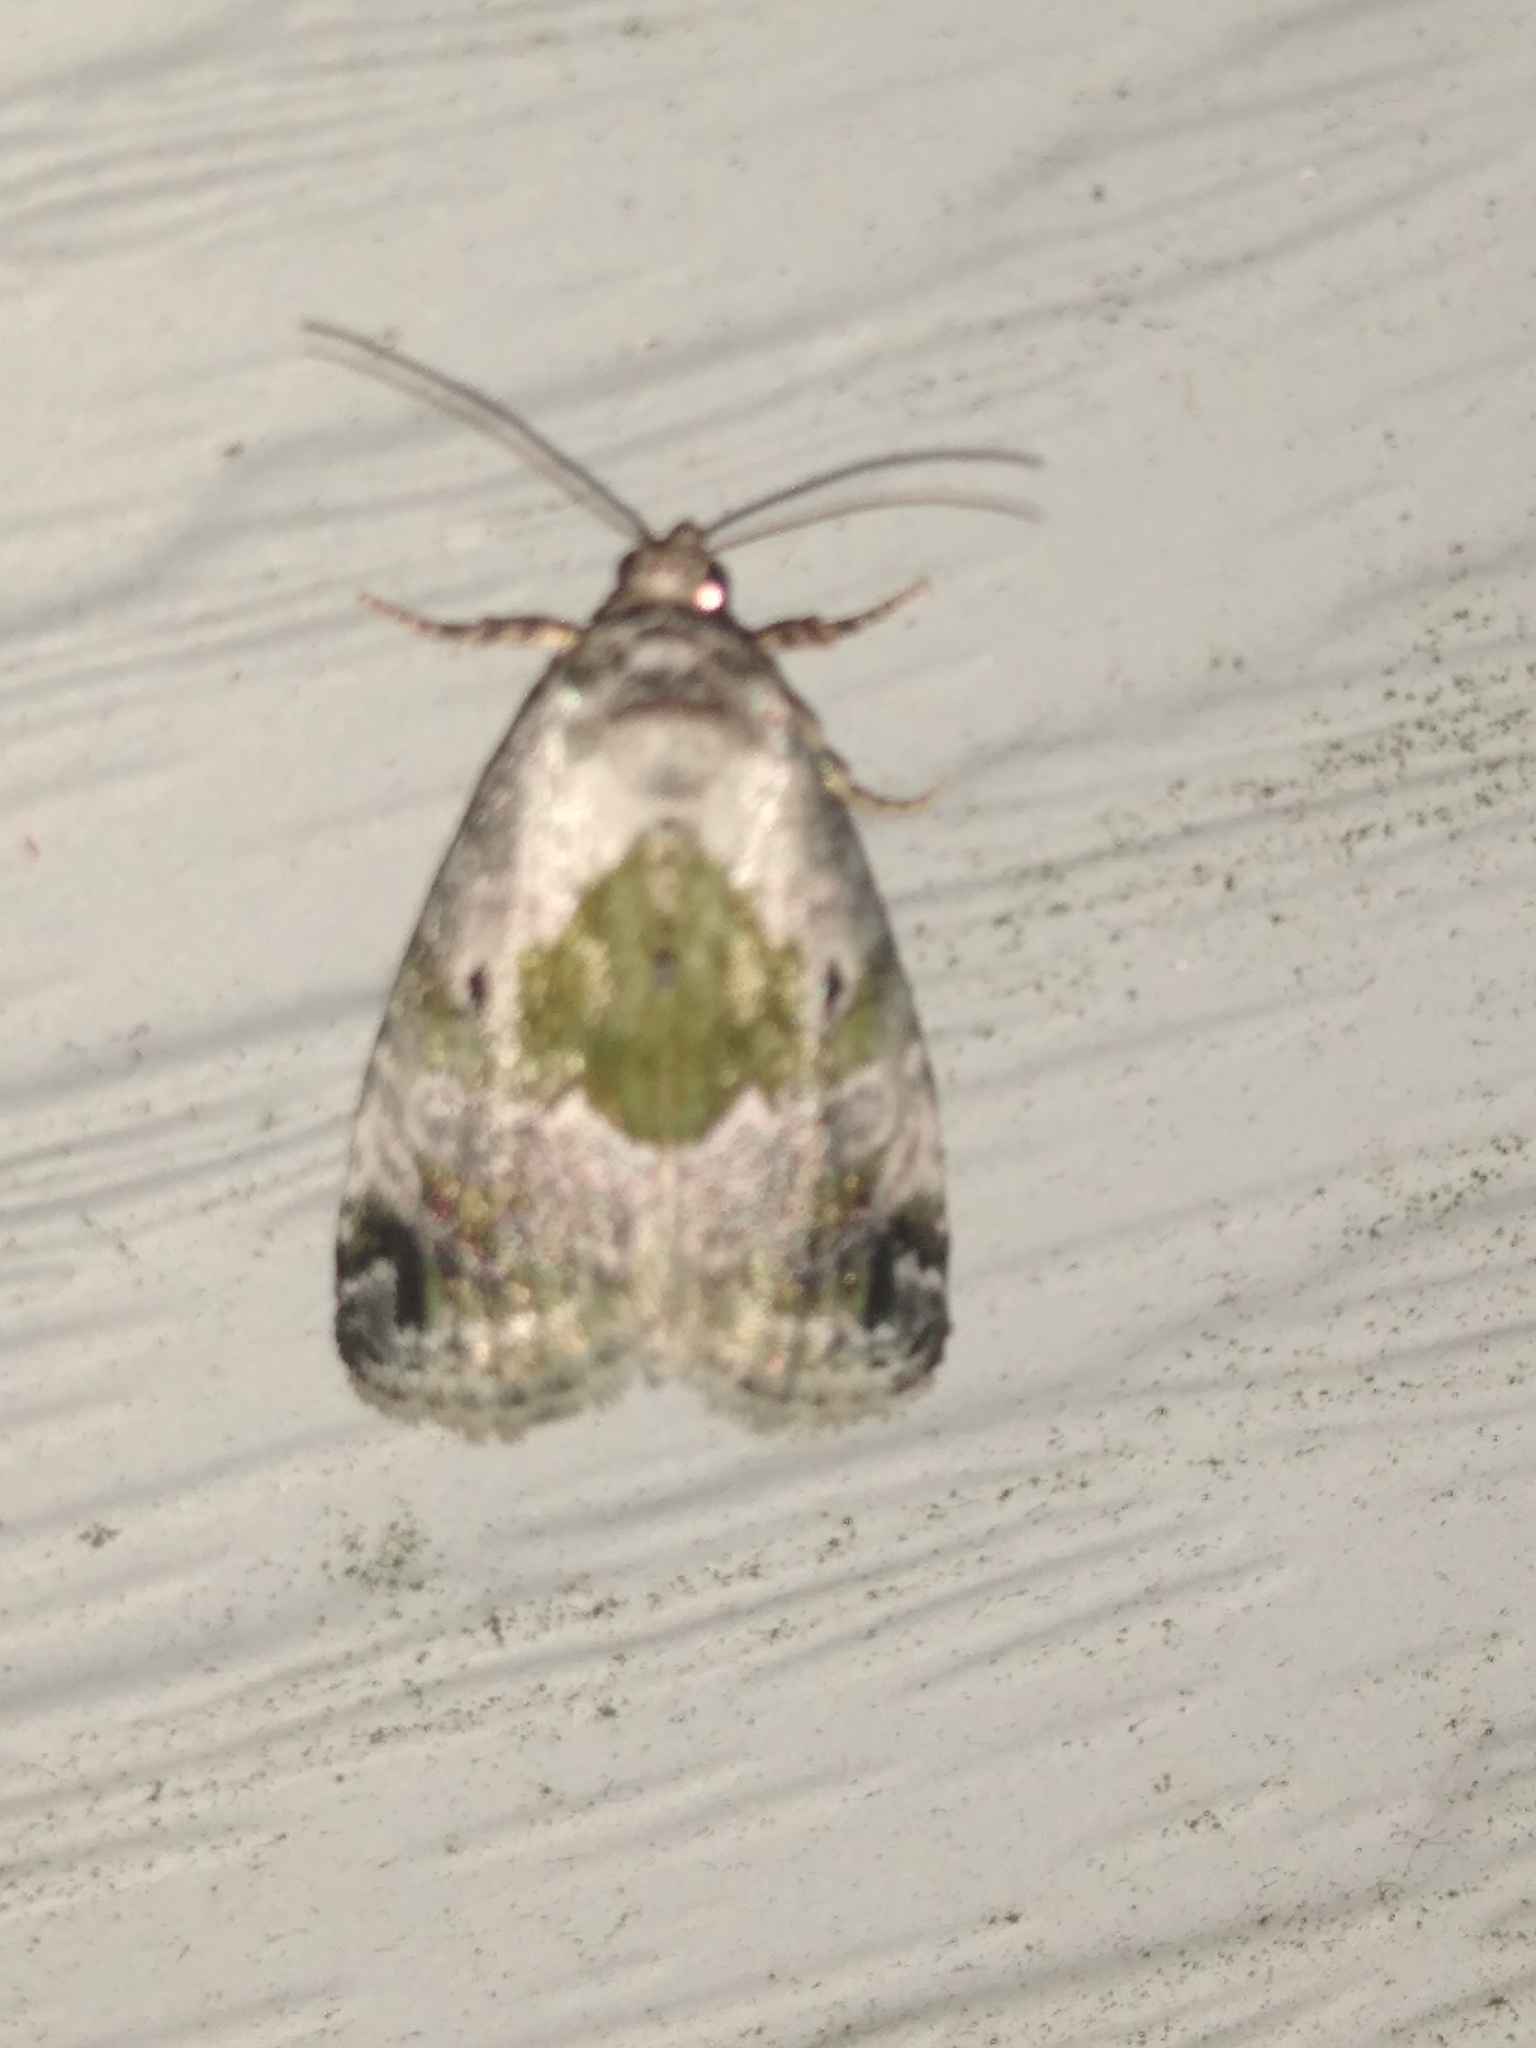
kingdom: Animalia
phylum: Arthropoda
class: Insecta
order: Lepidoptera
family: Noctuidae
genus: Maliattha
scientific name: Maliattha synochitis
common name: Black-dotted glyph
